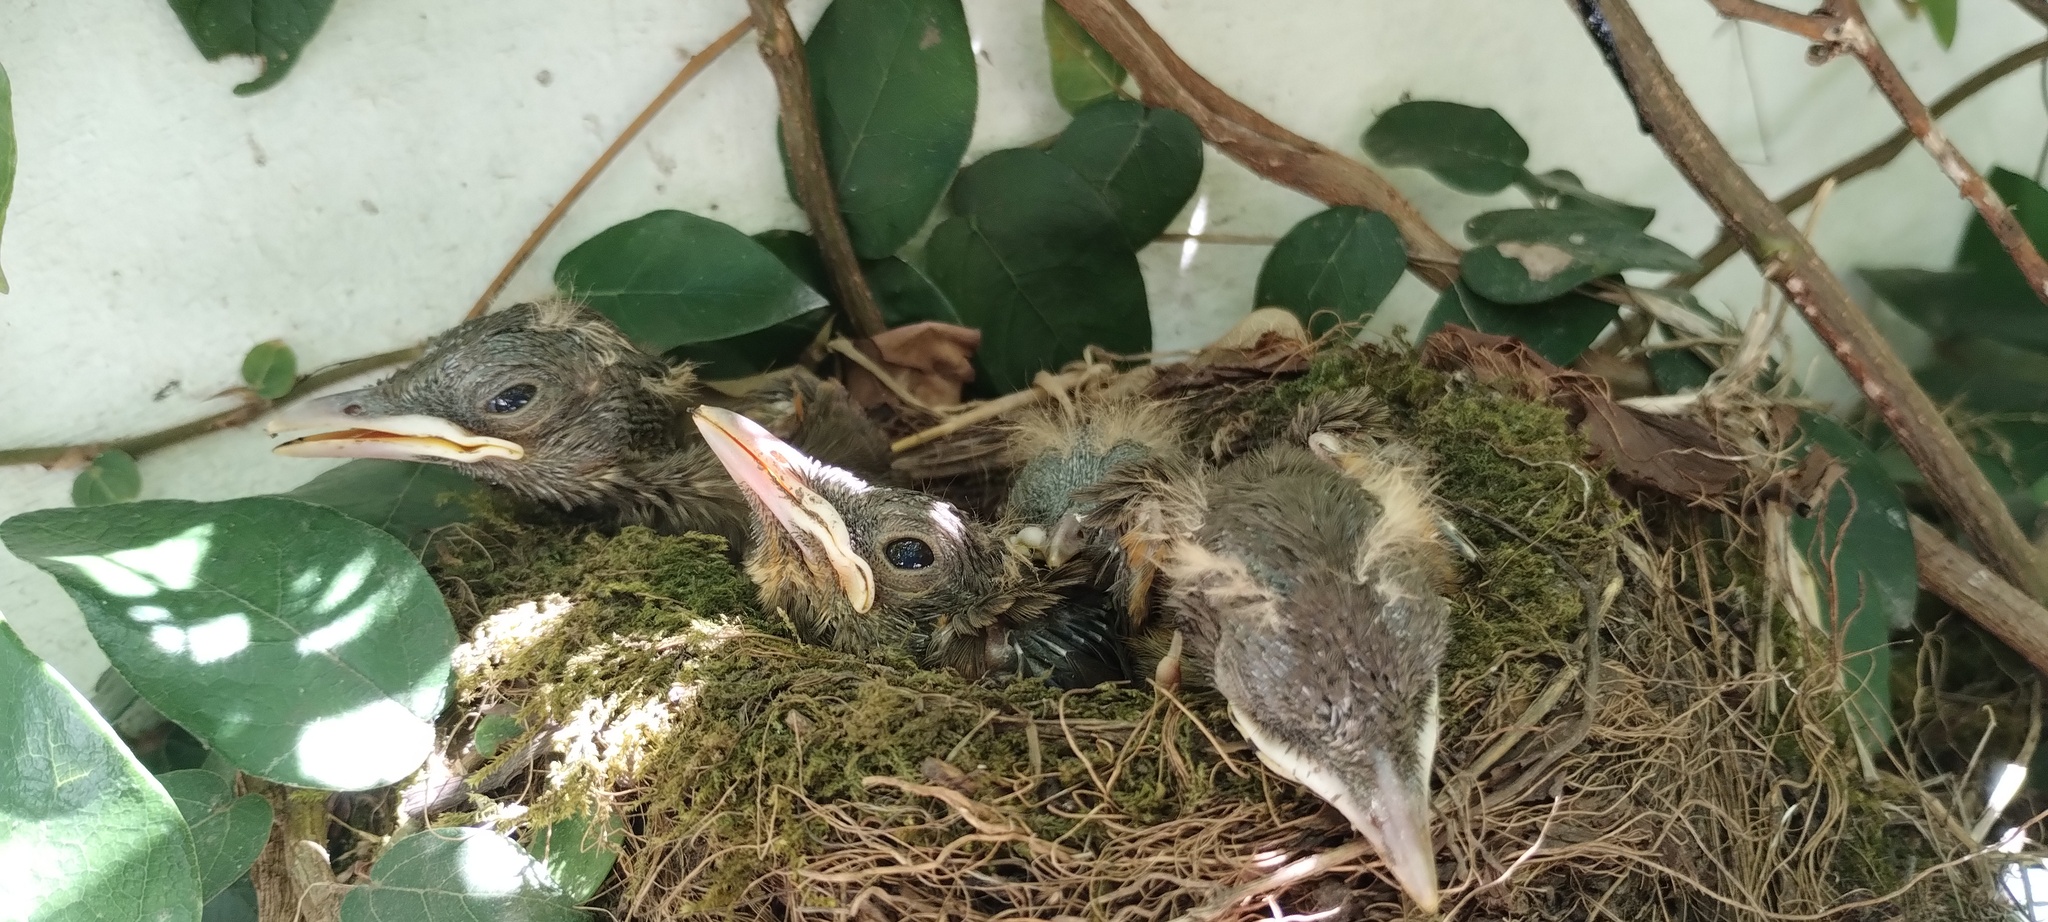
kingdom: Animalia
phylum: Chordata
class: Aves
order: Passeriformes
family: Turdidae
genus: Turdus
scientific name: Turdus rufiventris
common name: Rufous-bellied thrush
